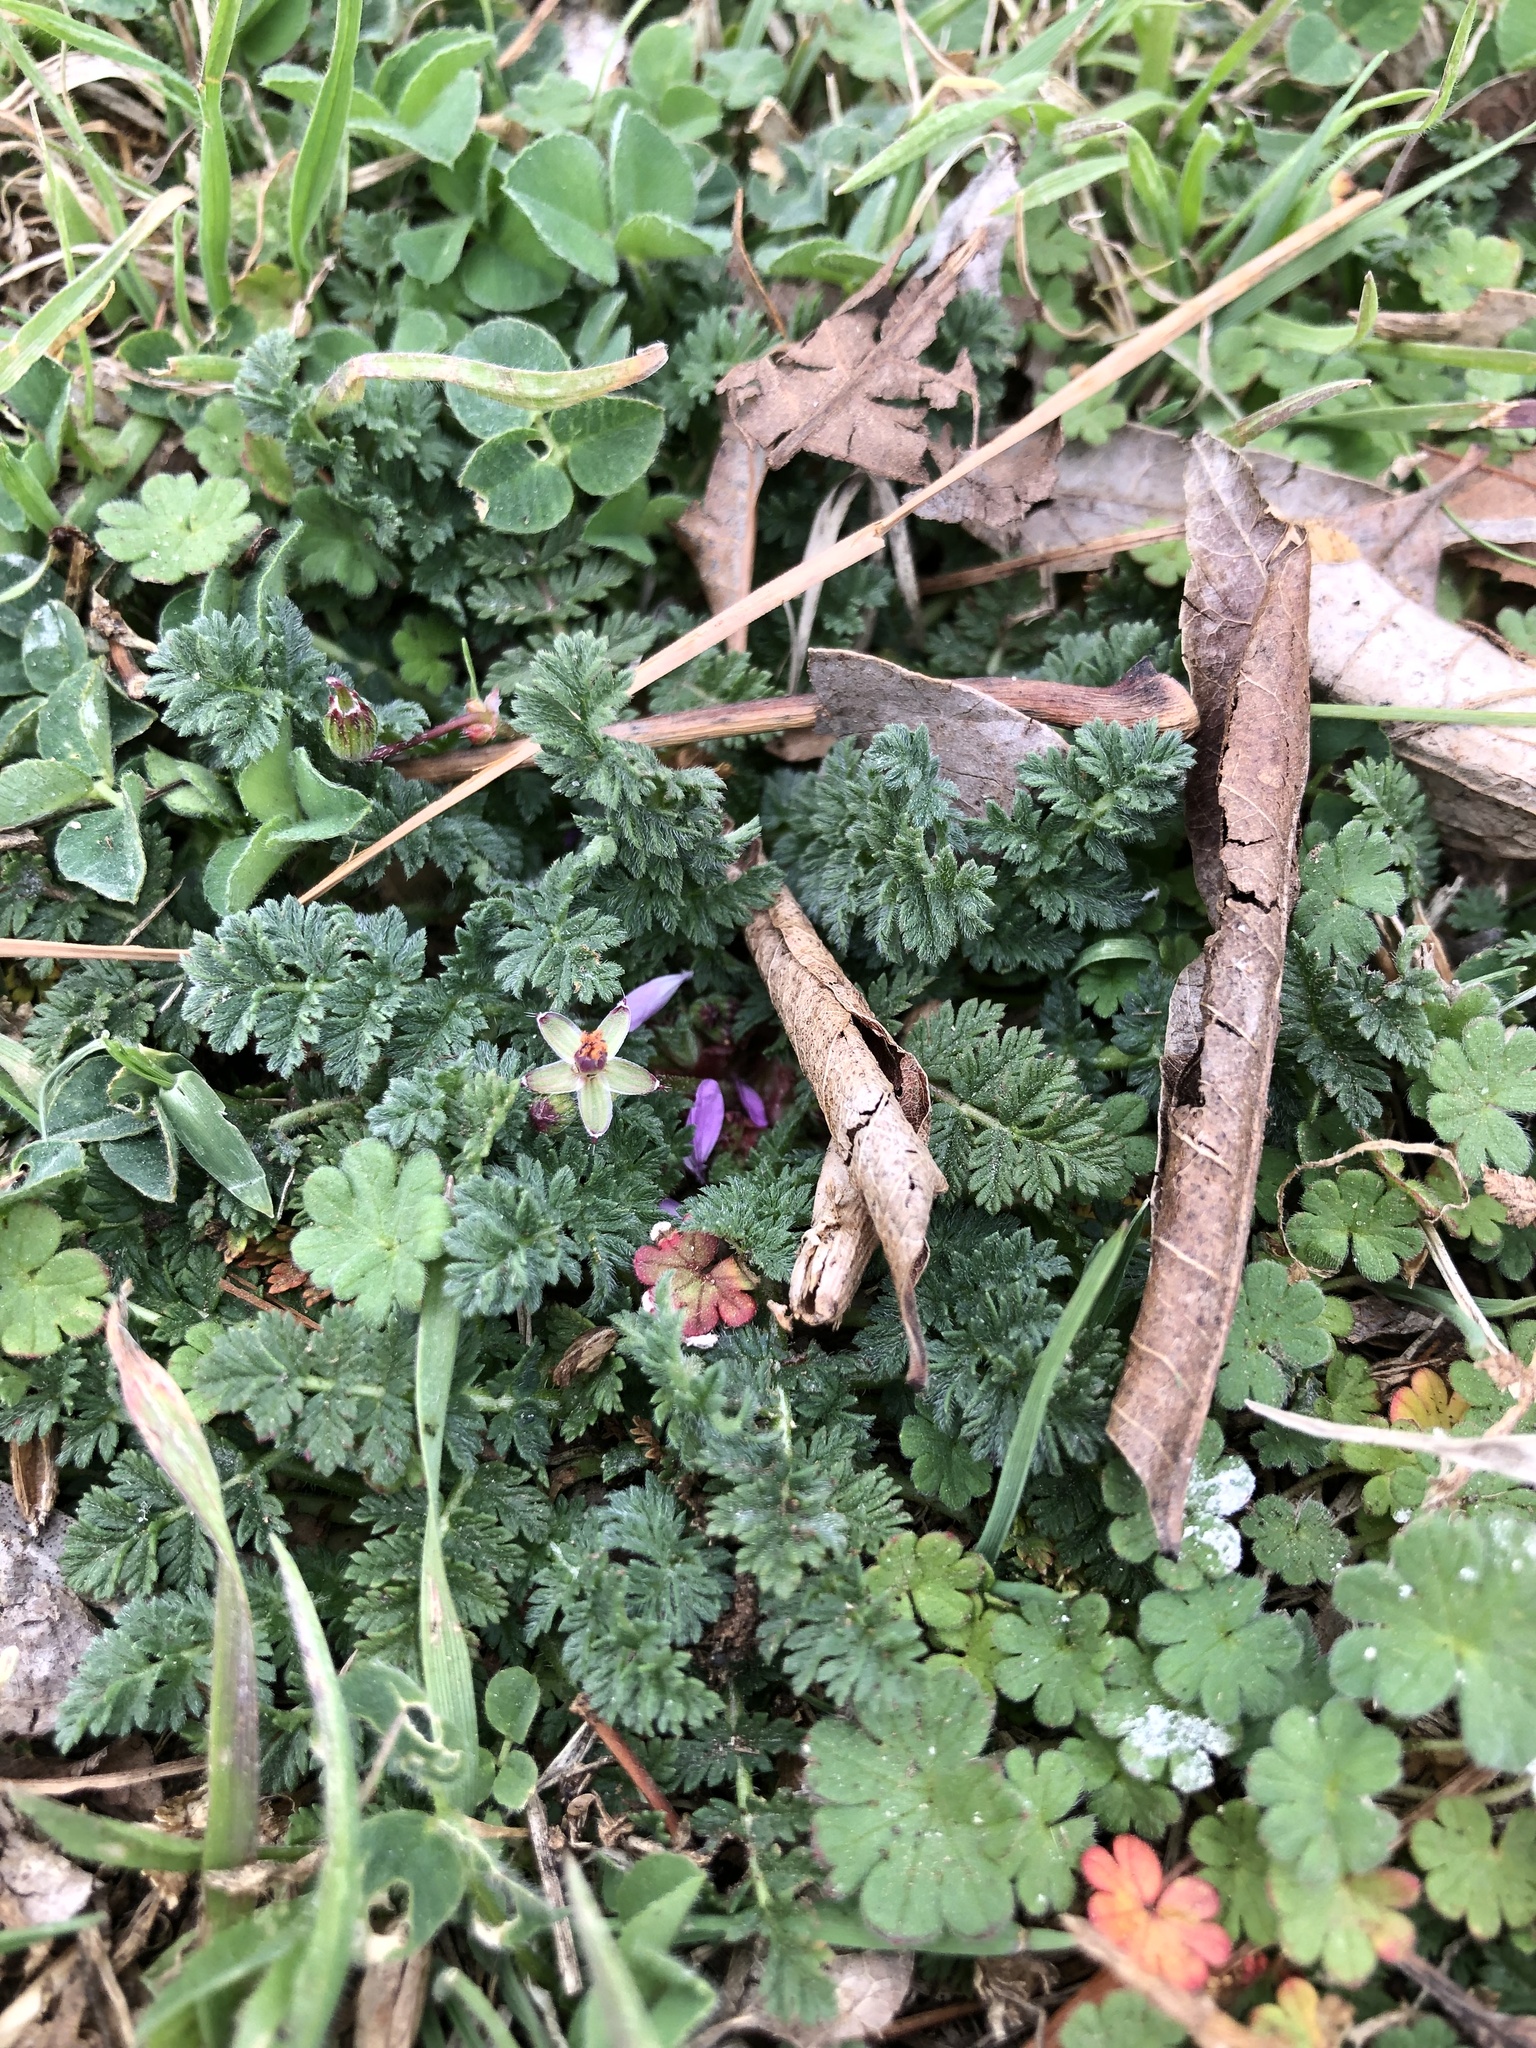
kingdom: Plantae
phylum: Tracheophyta
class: Magnoliopsida
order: Geraniales
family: Geraniaceae
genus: Erodium
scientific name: Erodium cicutarium
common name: Common stork's-bill
